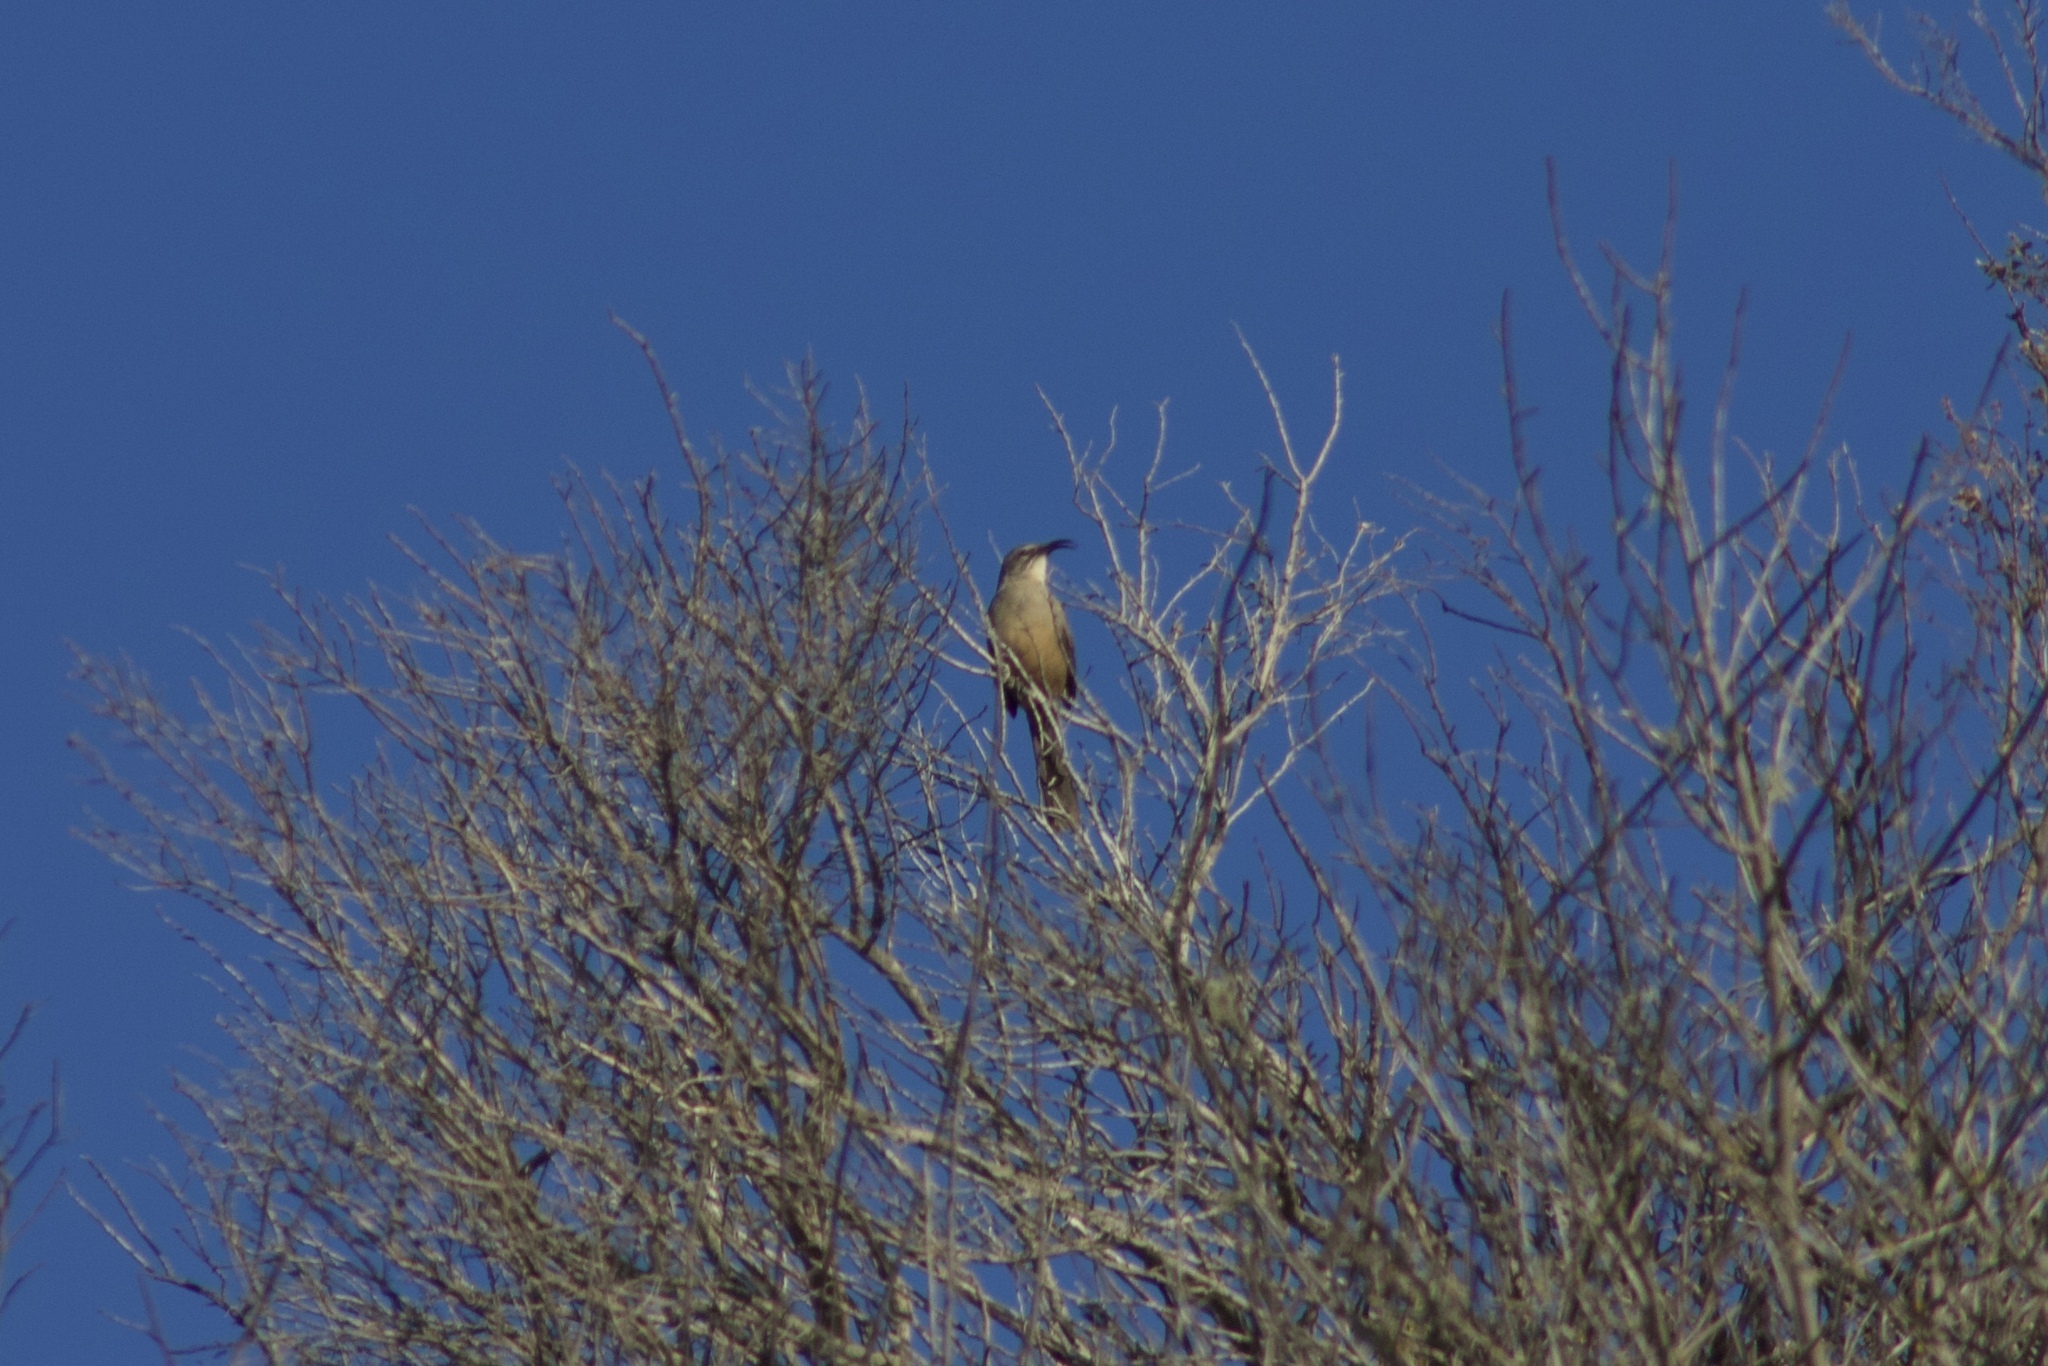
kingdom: Animalia
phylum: Chordata
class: Aves
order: Passeriformes
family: Mimidae
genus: Toxostoma
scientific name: Toxostoma redivivum
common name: California thrasher
